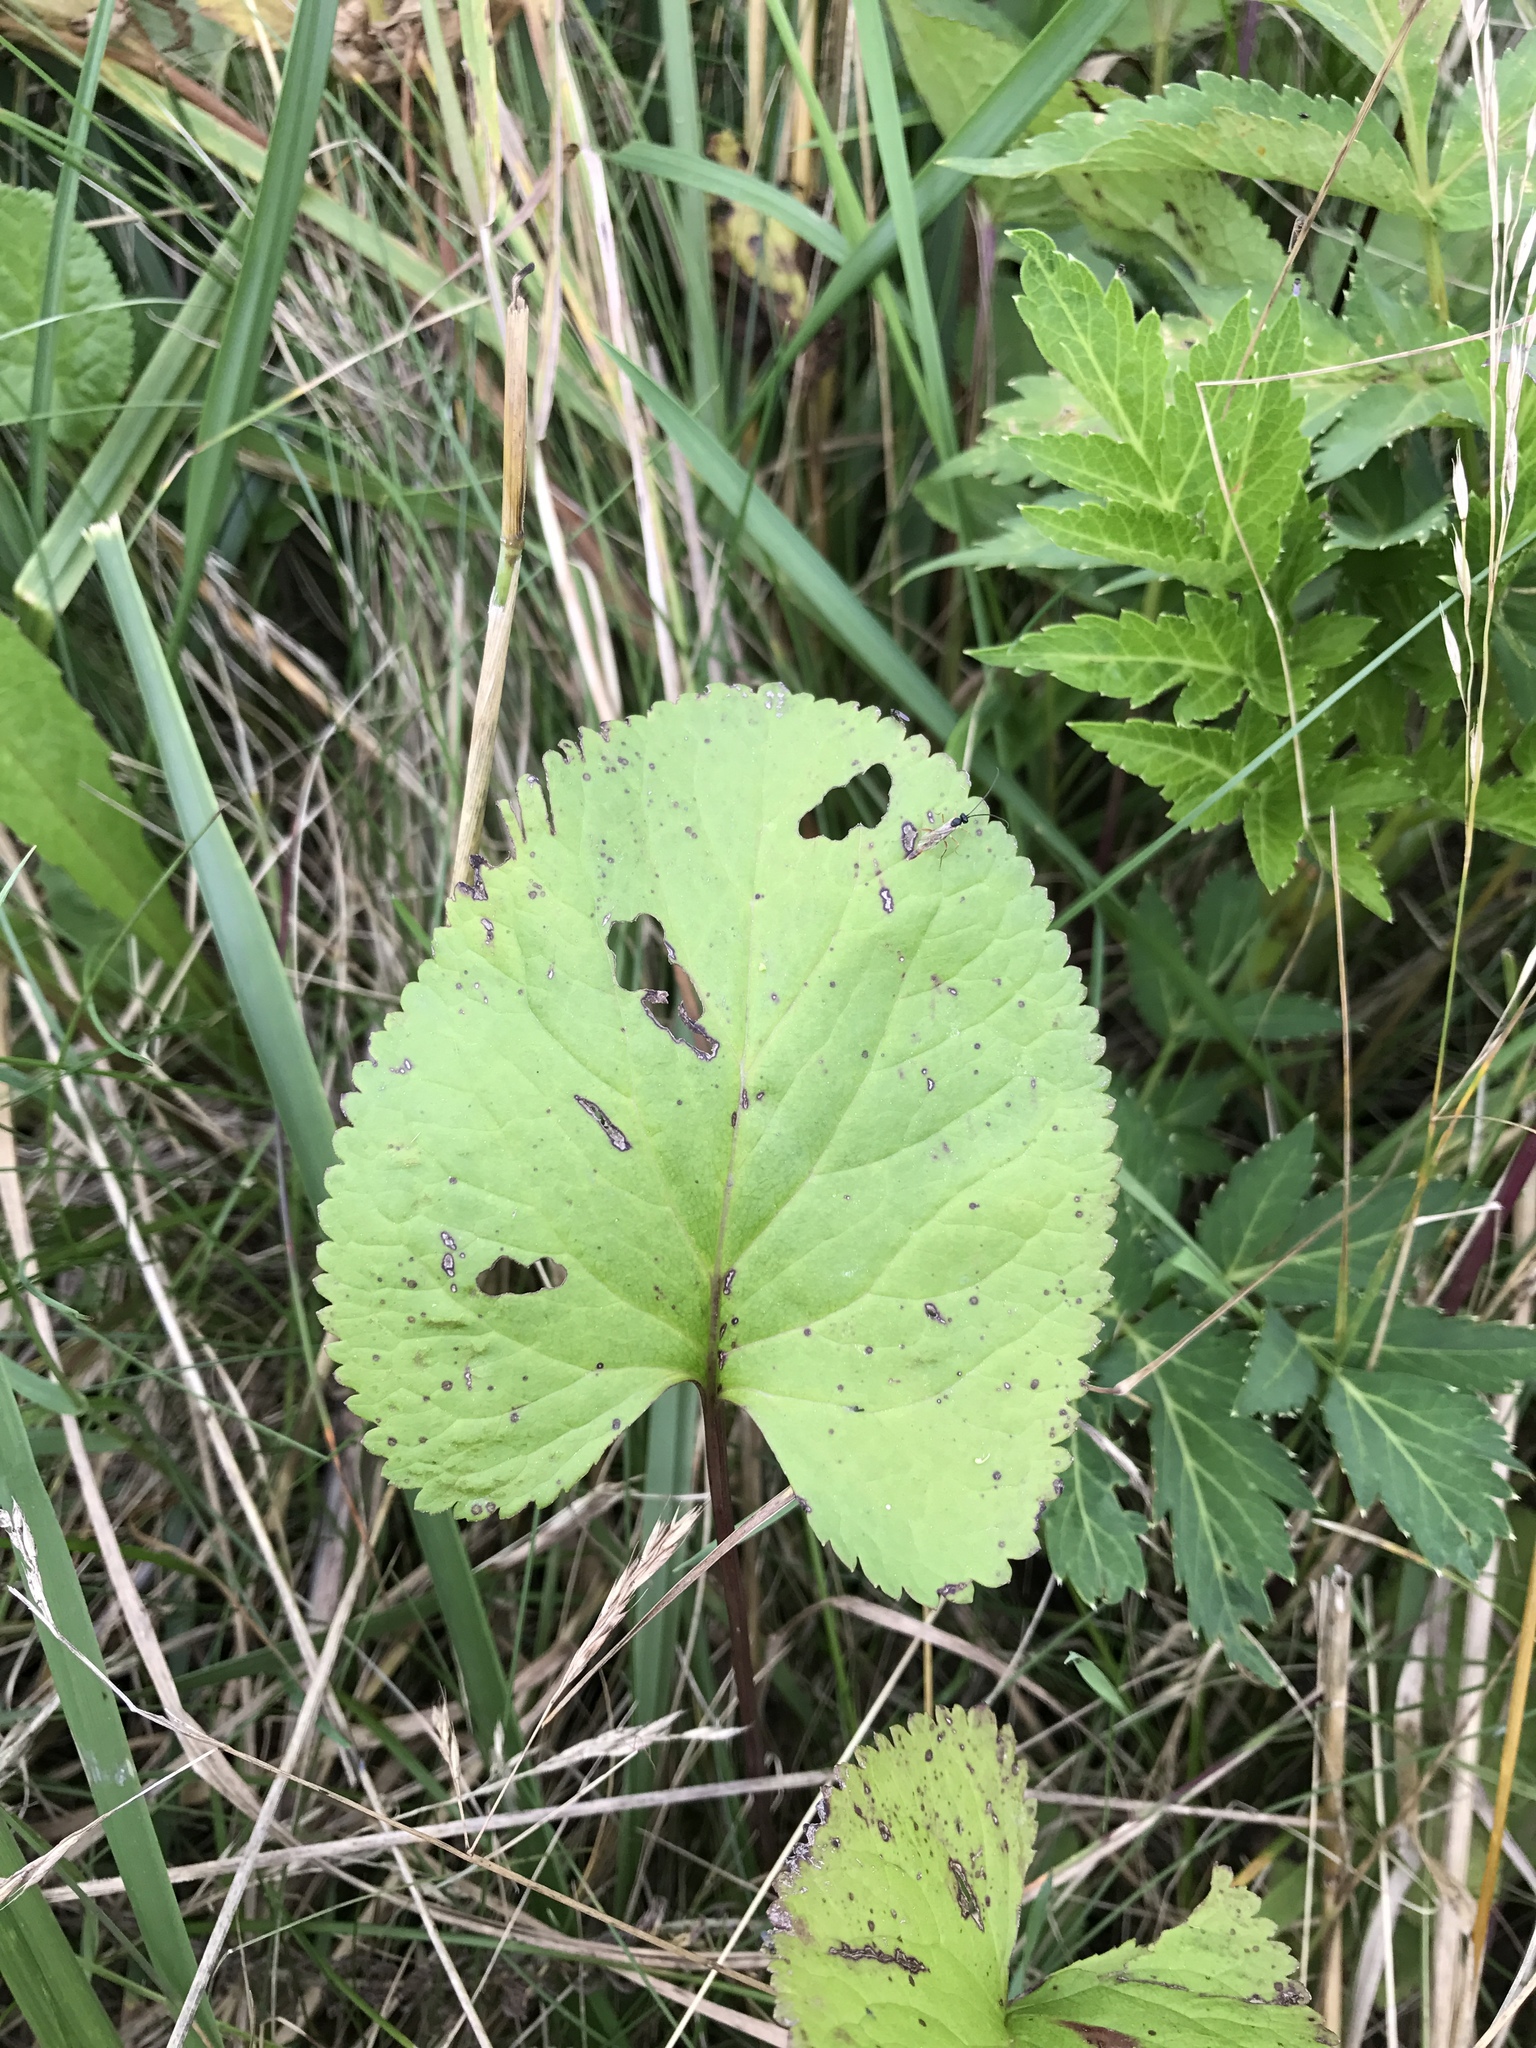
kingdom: Plantae
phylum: Tracheophyta
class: Magnoliopsida
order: Asterales
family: Asteraceae
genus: Packera
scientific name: Packera aurea
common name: Golden groundsel
